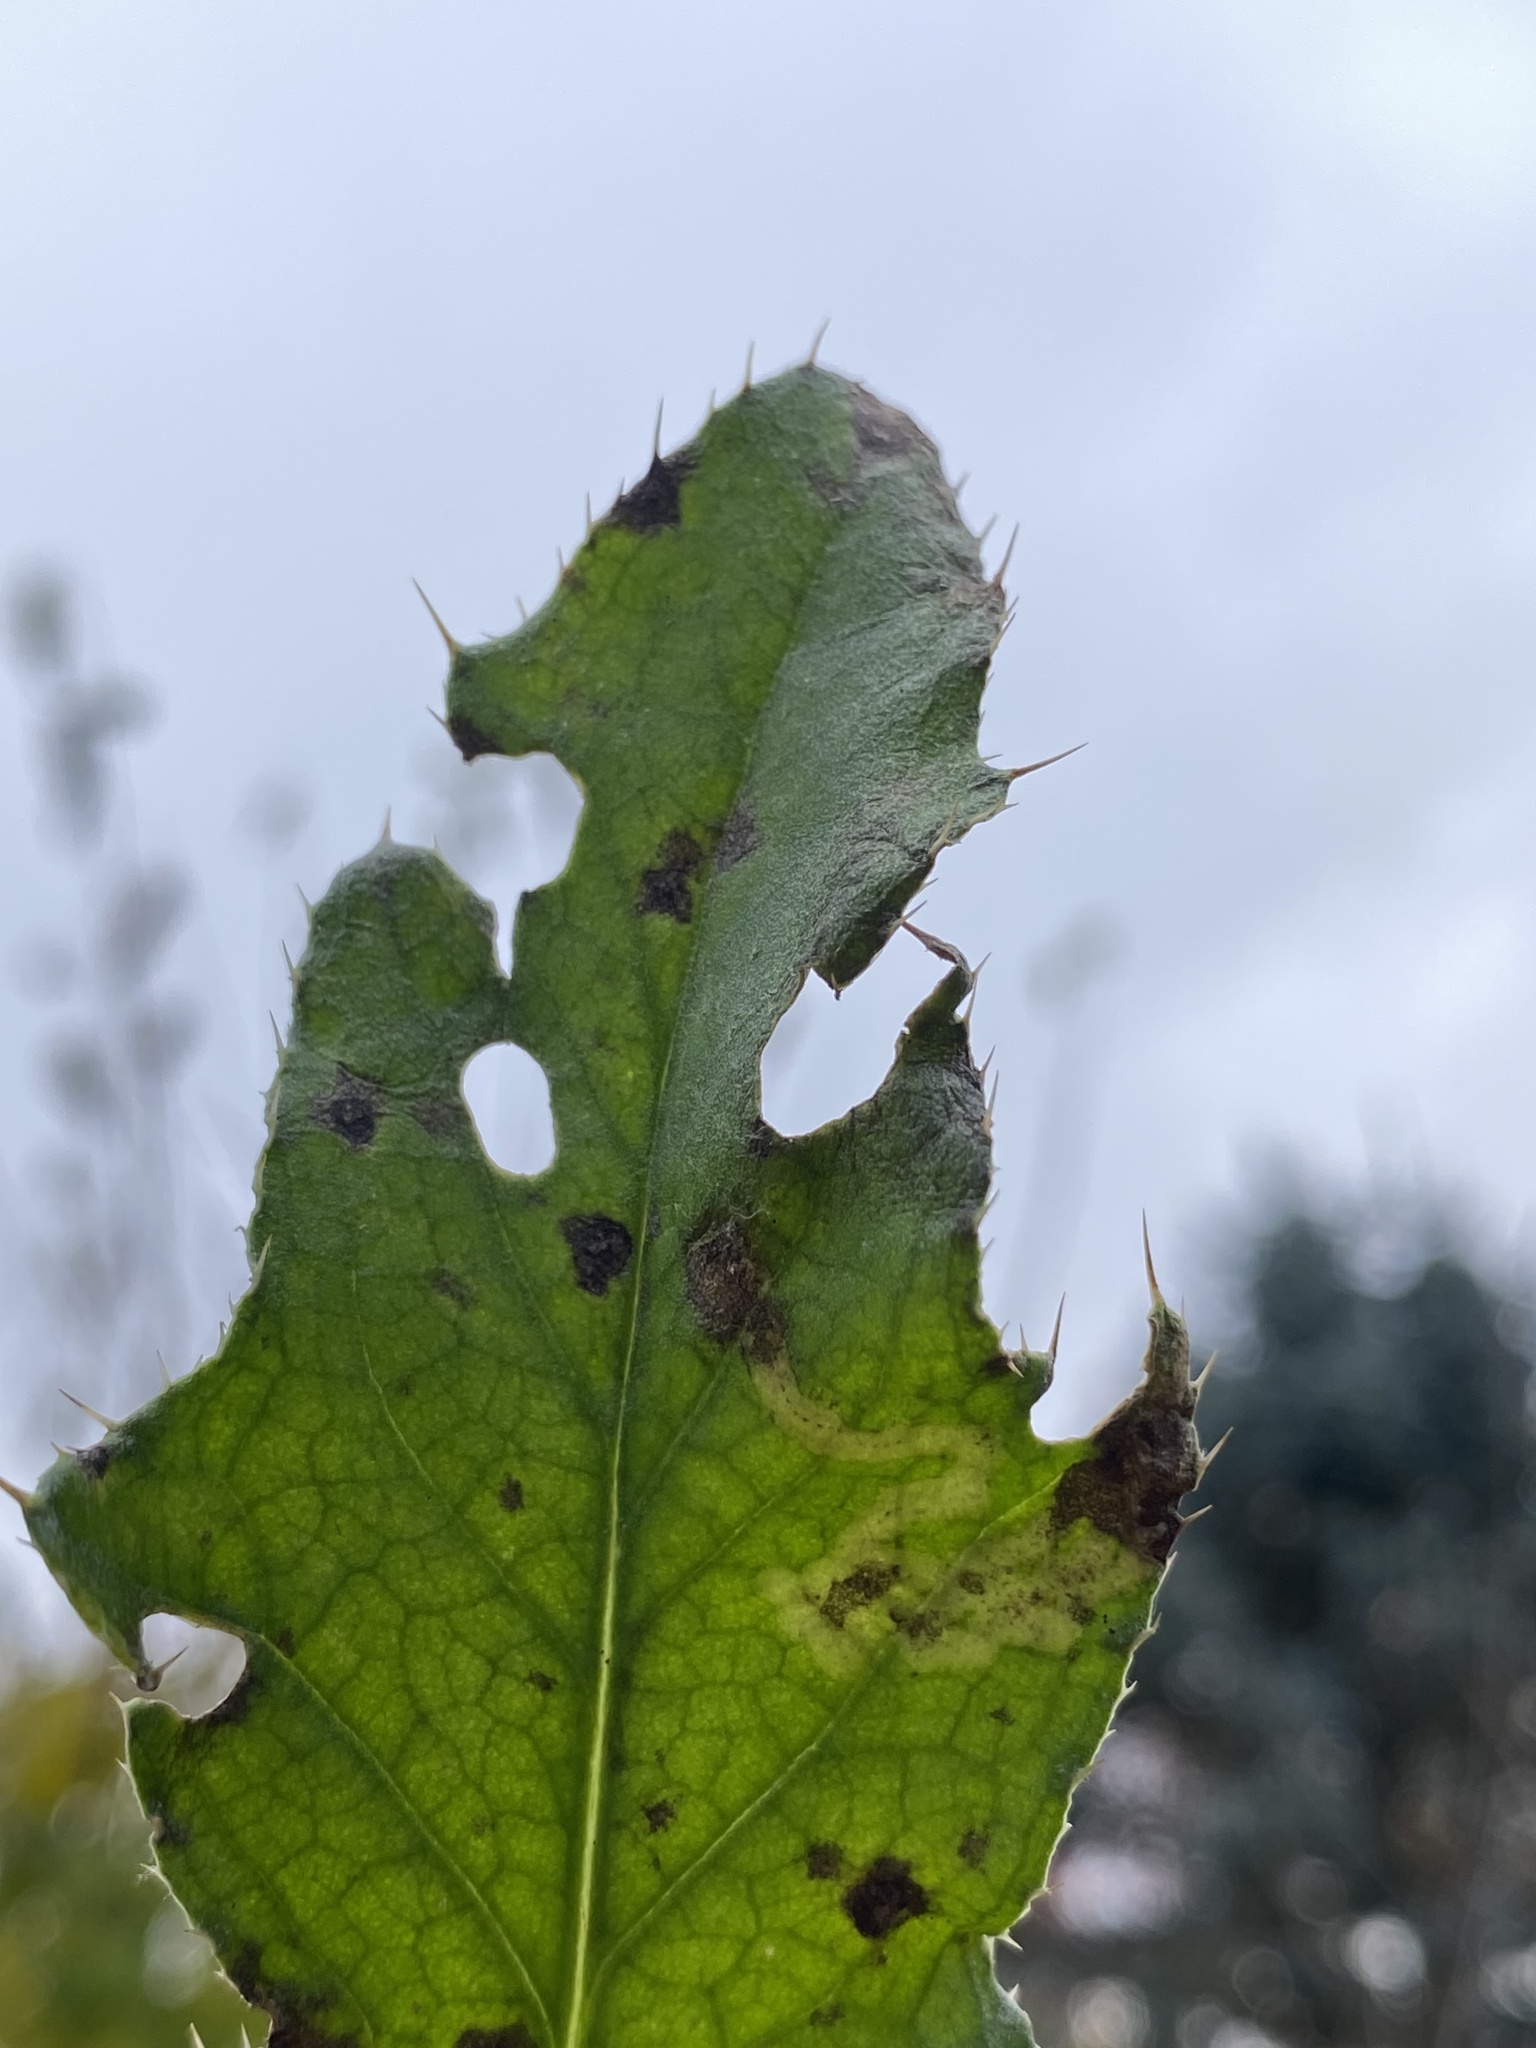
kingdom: Animalia
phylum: Arthropoda
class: Insecta
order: Diptera
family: Agromyzidae
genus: Phytomyza
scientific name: Phytomyza spinaciae
